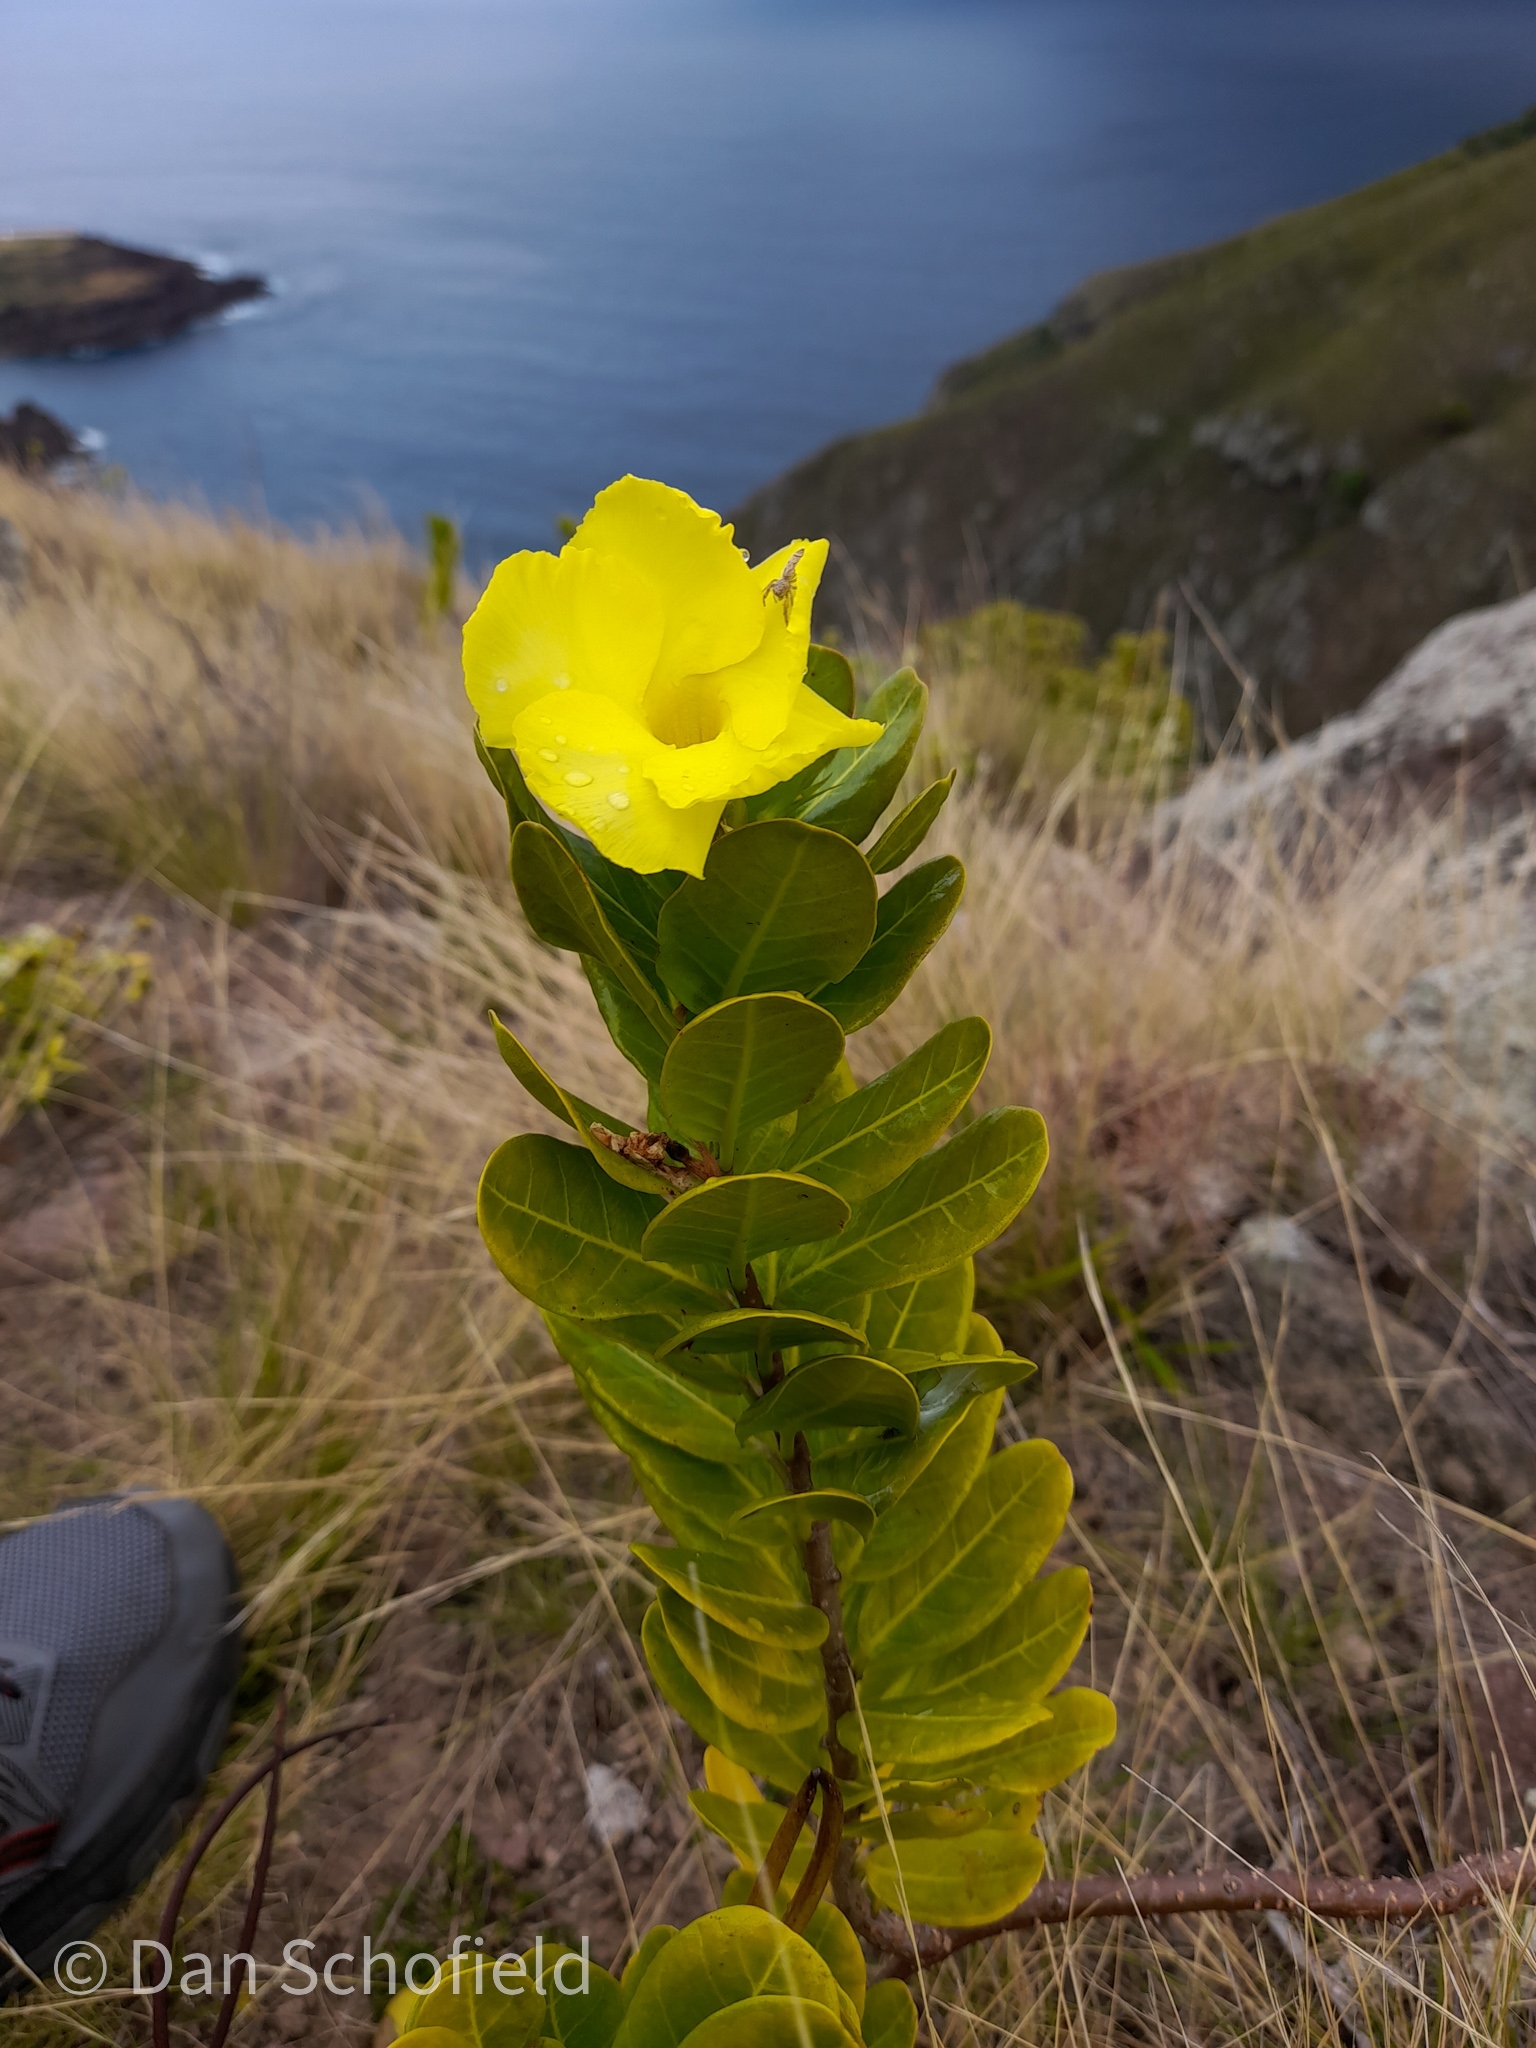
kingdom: Plantae
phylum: Tracheophyta
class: Magnoliopsida
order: Gentianales
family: Apocynaceae
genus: Pentalinon
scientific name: Pentalinon luteum
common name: Licebush
